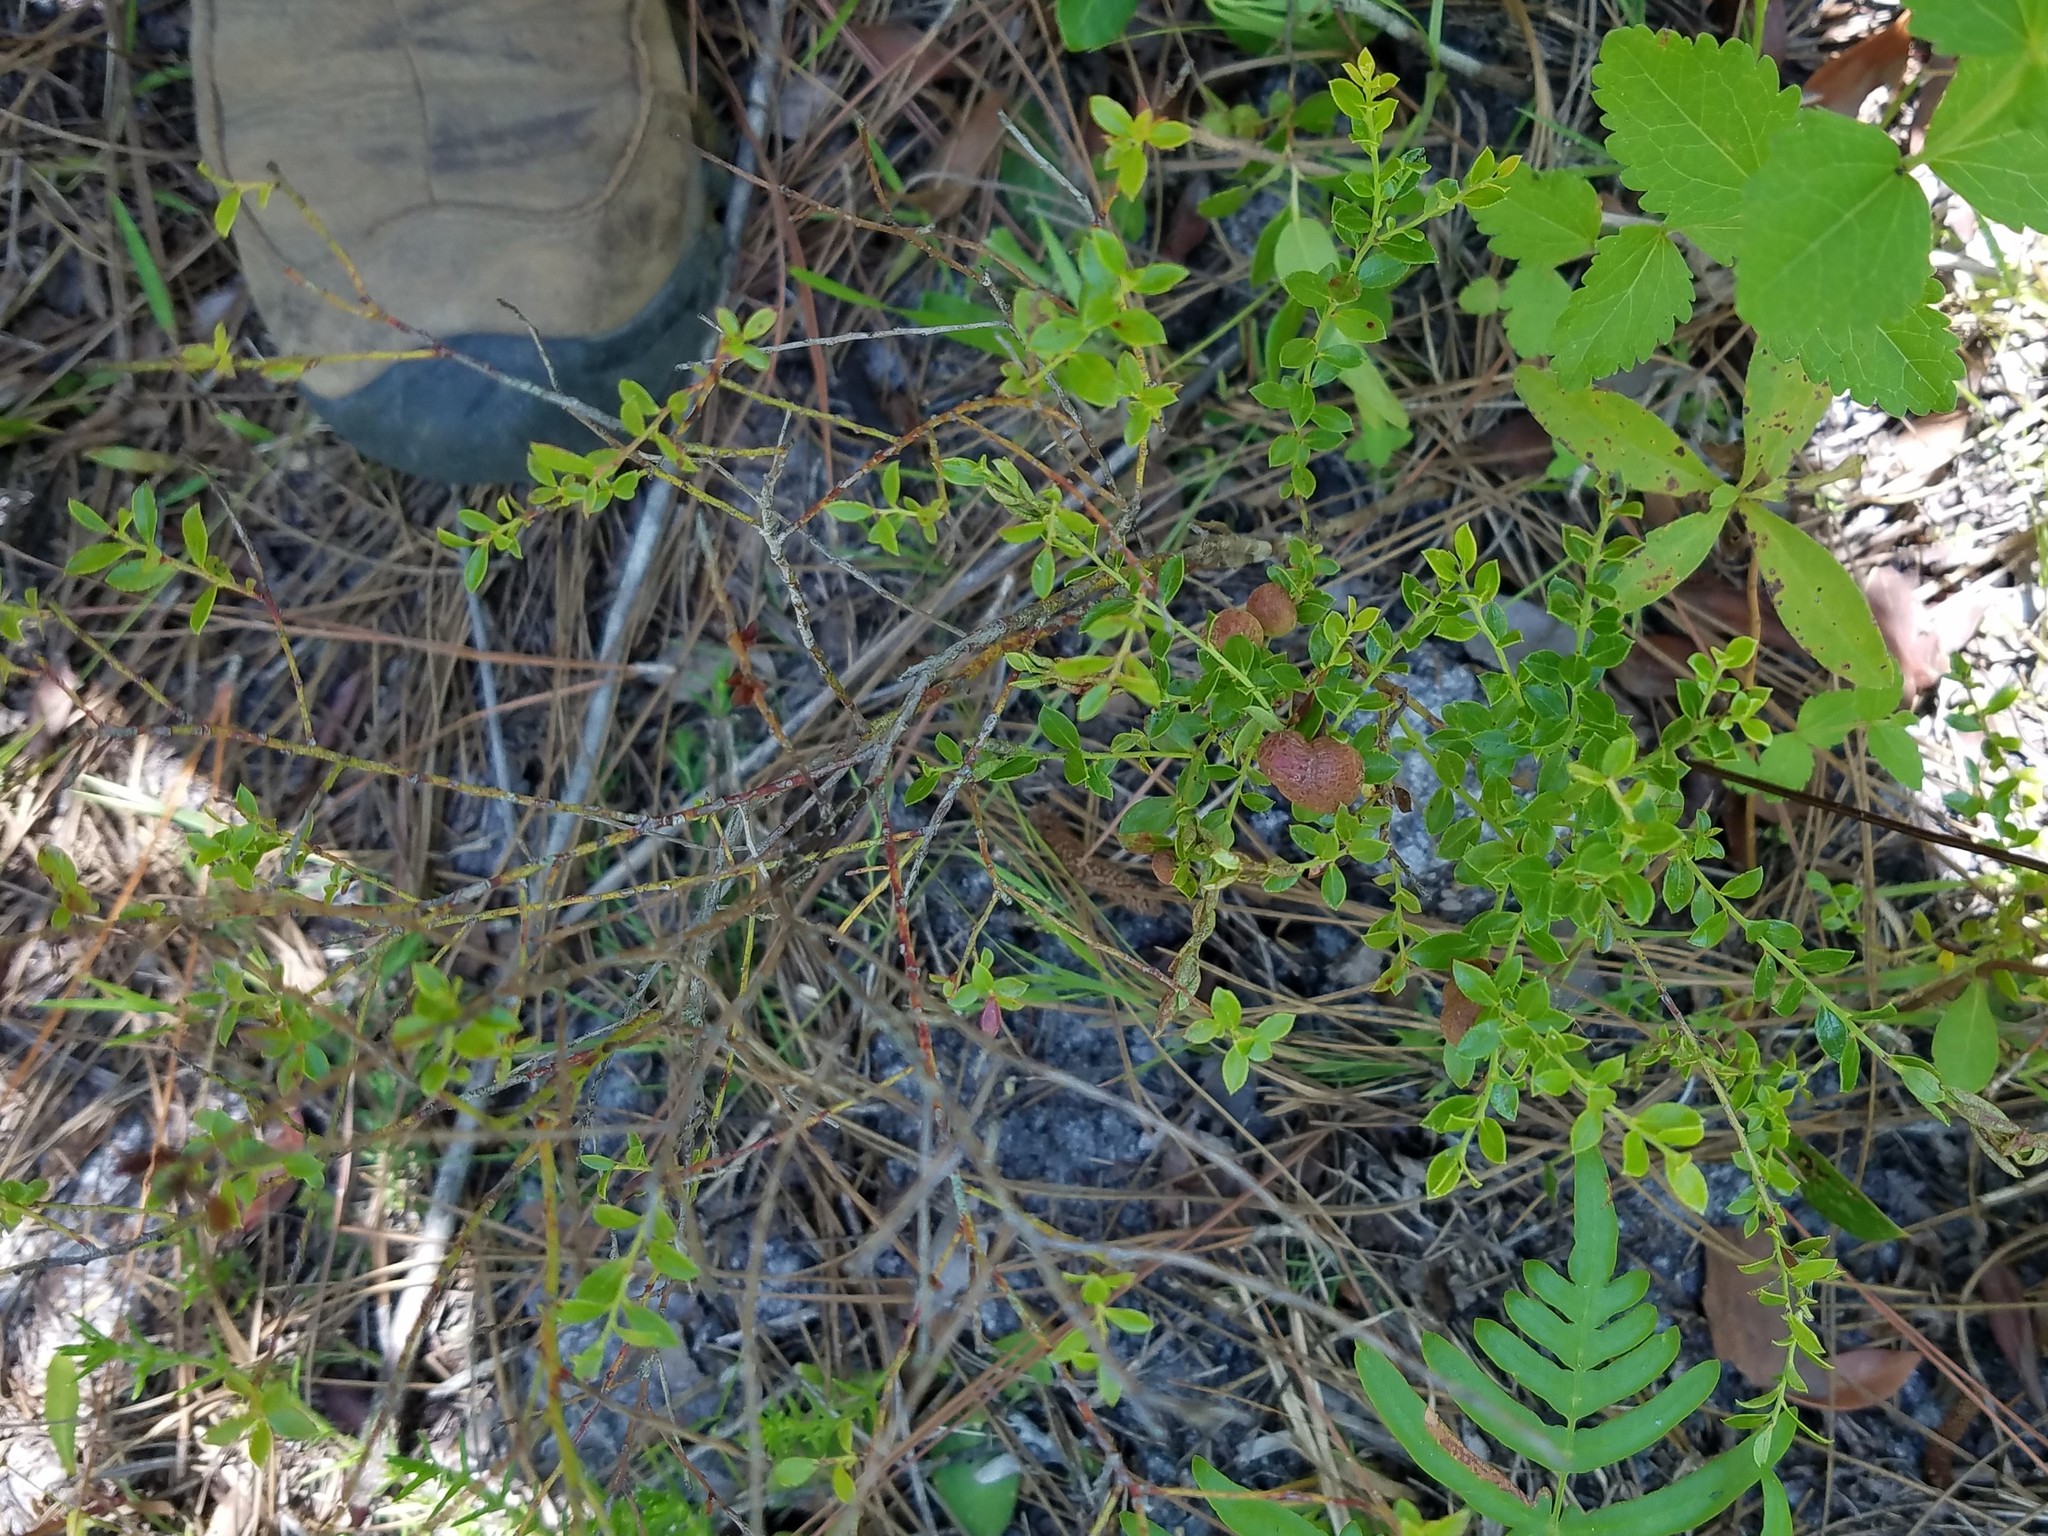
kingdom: Plantae
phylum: Tracheophyta
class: Magnoliopsida
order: Ericales
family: Ericaceae
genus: Vaccinium
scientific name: Vaccinium myrsinites
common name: Evergreen blueberry
